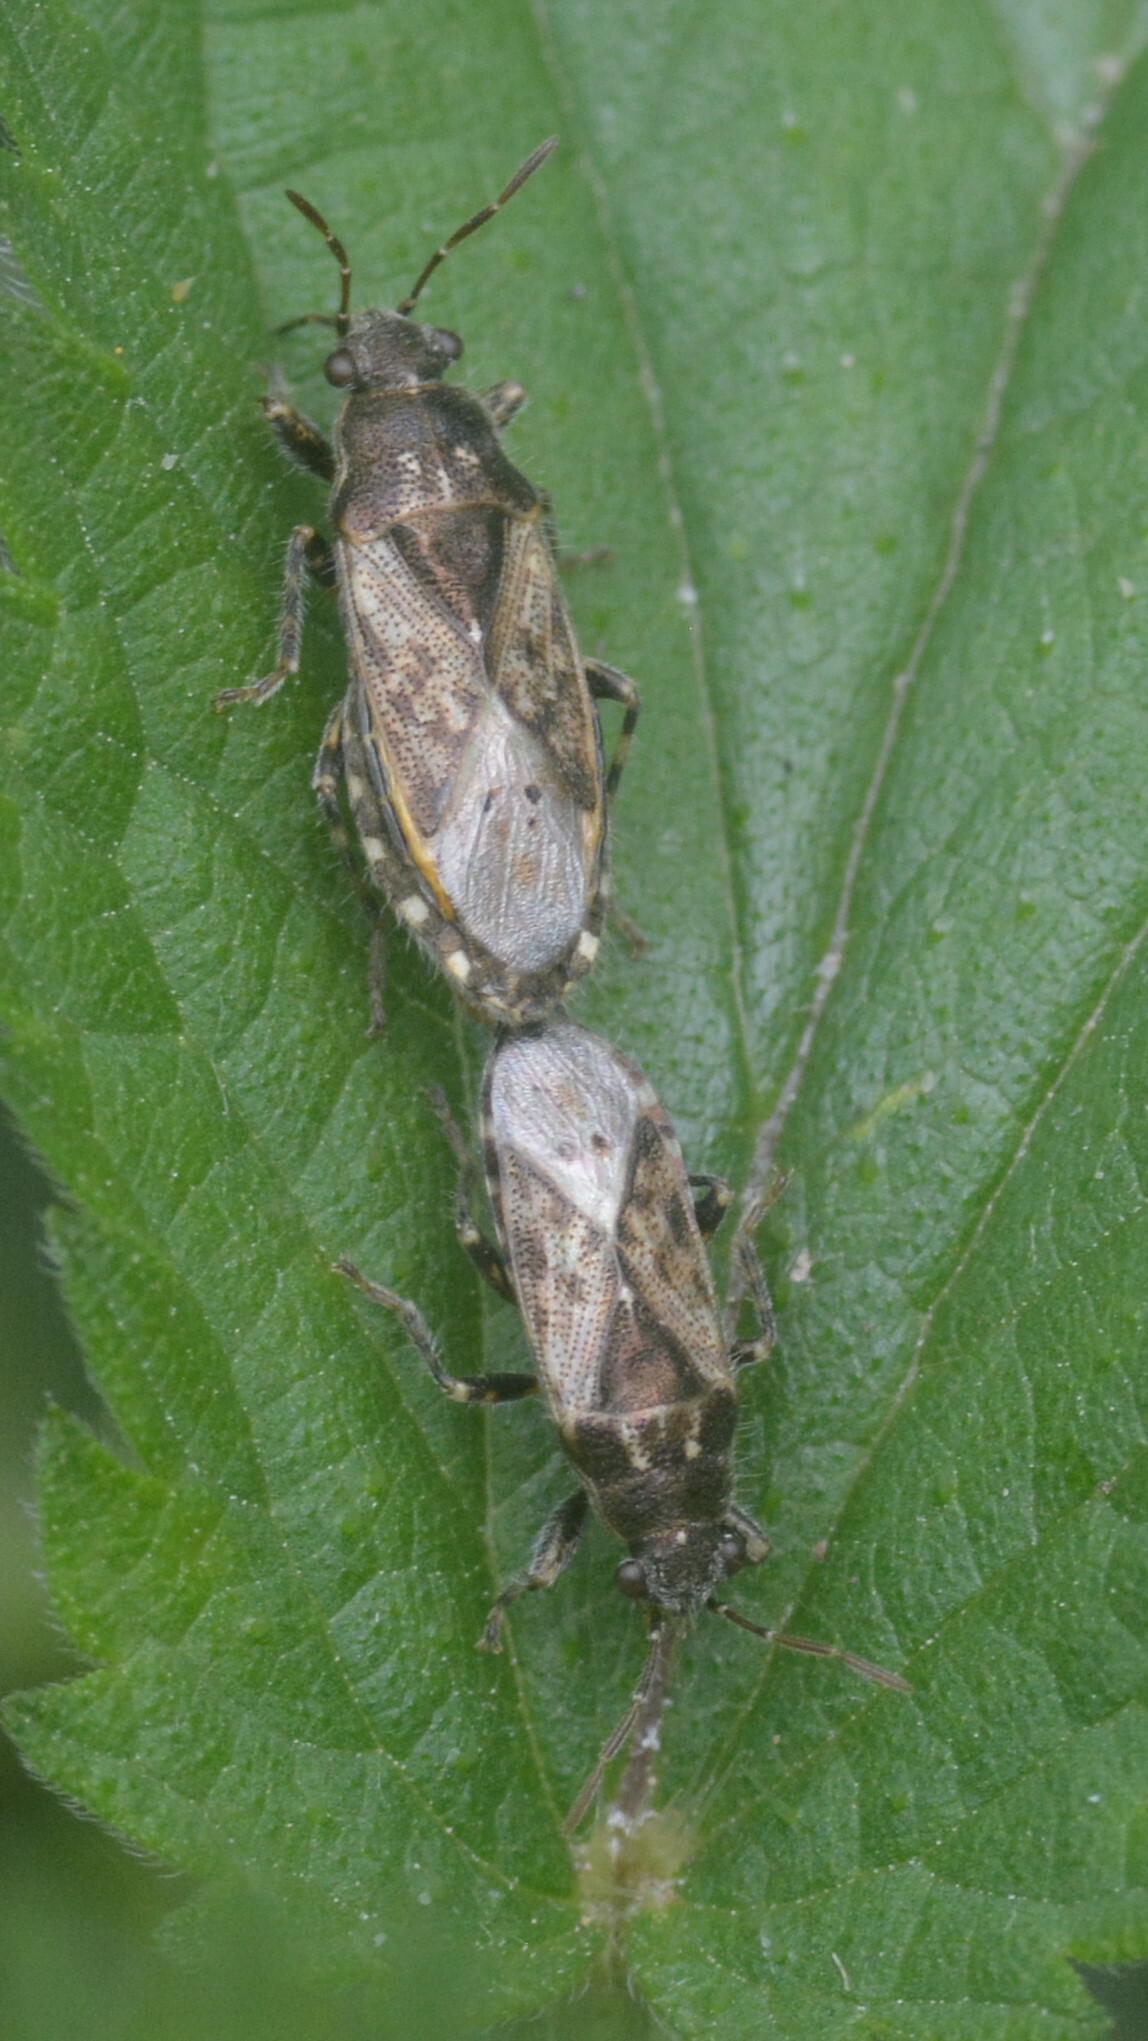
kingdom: Animalia
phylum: Arthropoda
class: Insecta
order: Hemiptera
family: Heterogastridae
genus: Heterogaster
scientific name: Heterogaster urticae
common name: Seed bug
